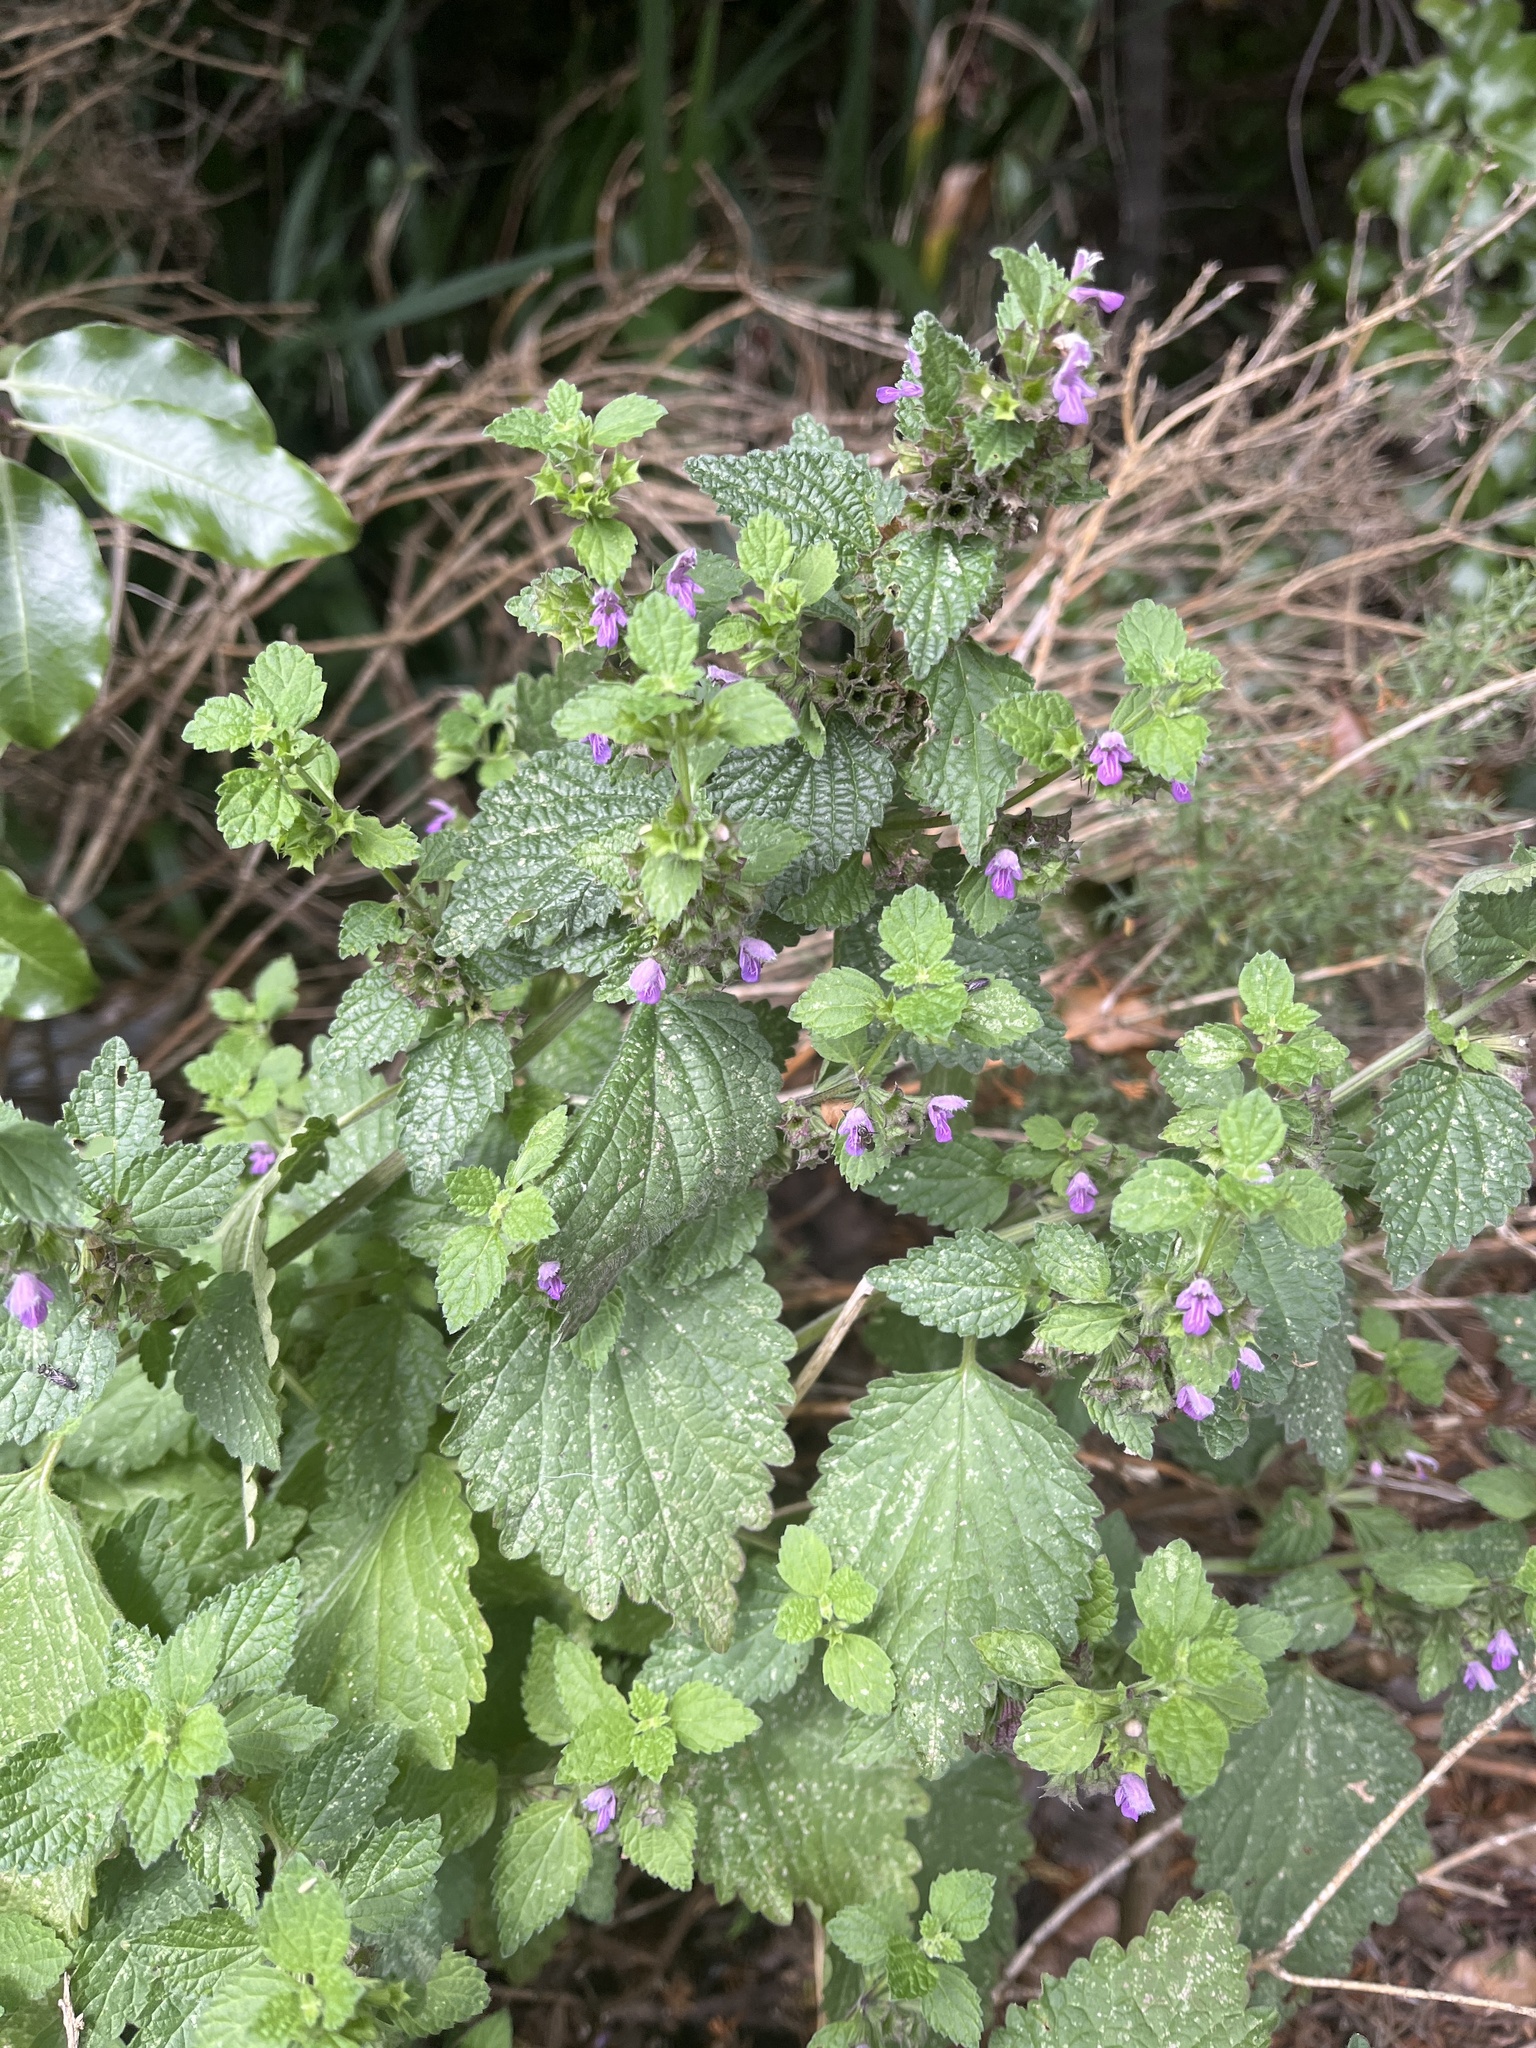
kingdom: Plantae
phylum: Tracheophyta
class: Magnoliopsida
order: Lamiales
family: Lamiaceae
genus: Ballota
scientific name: Ballota nigra
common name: Black horehound
